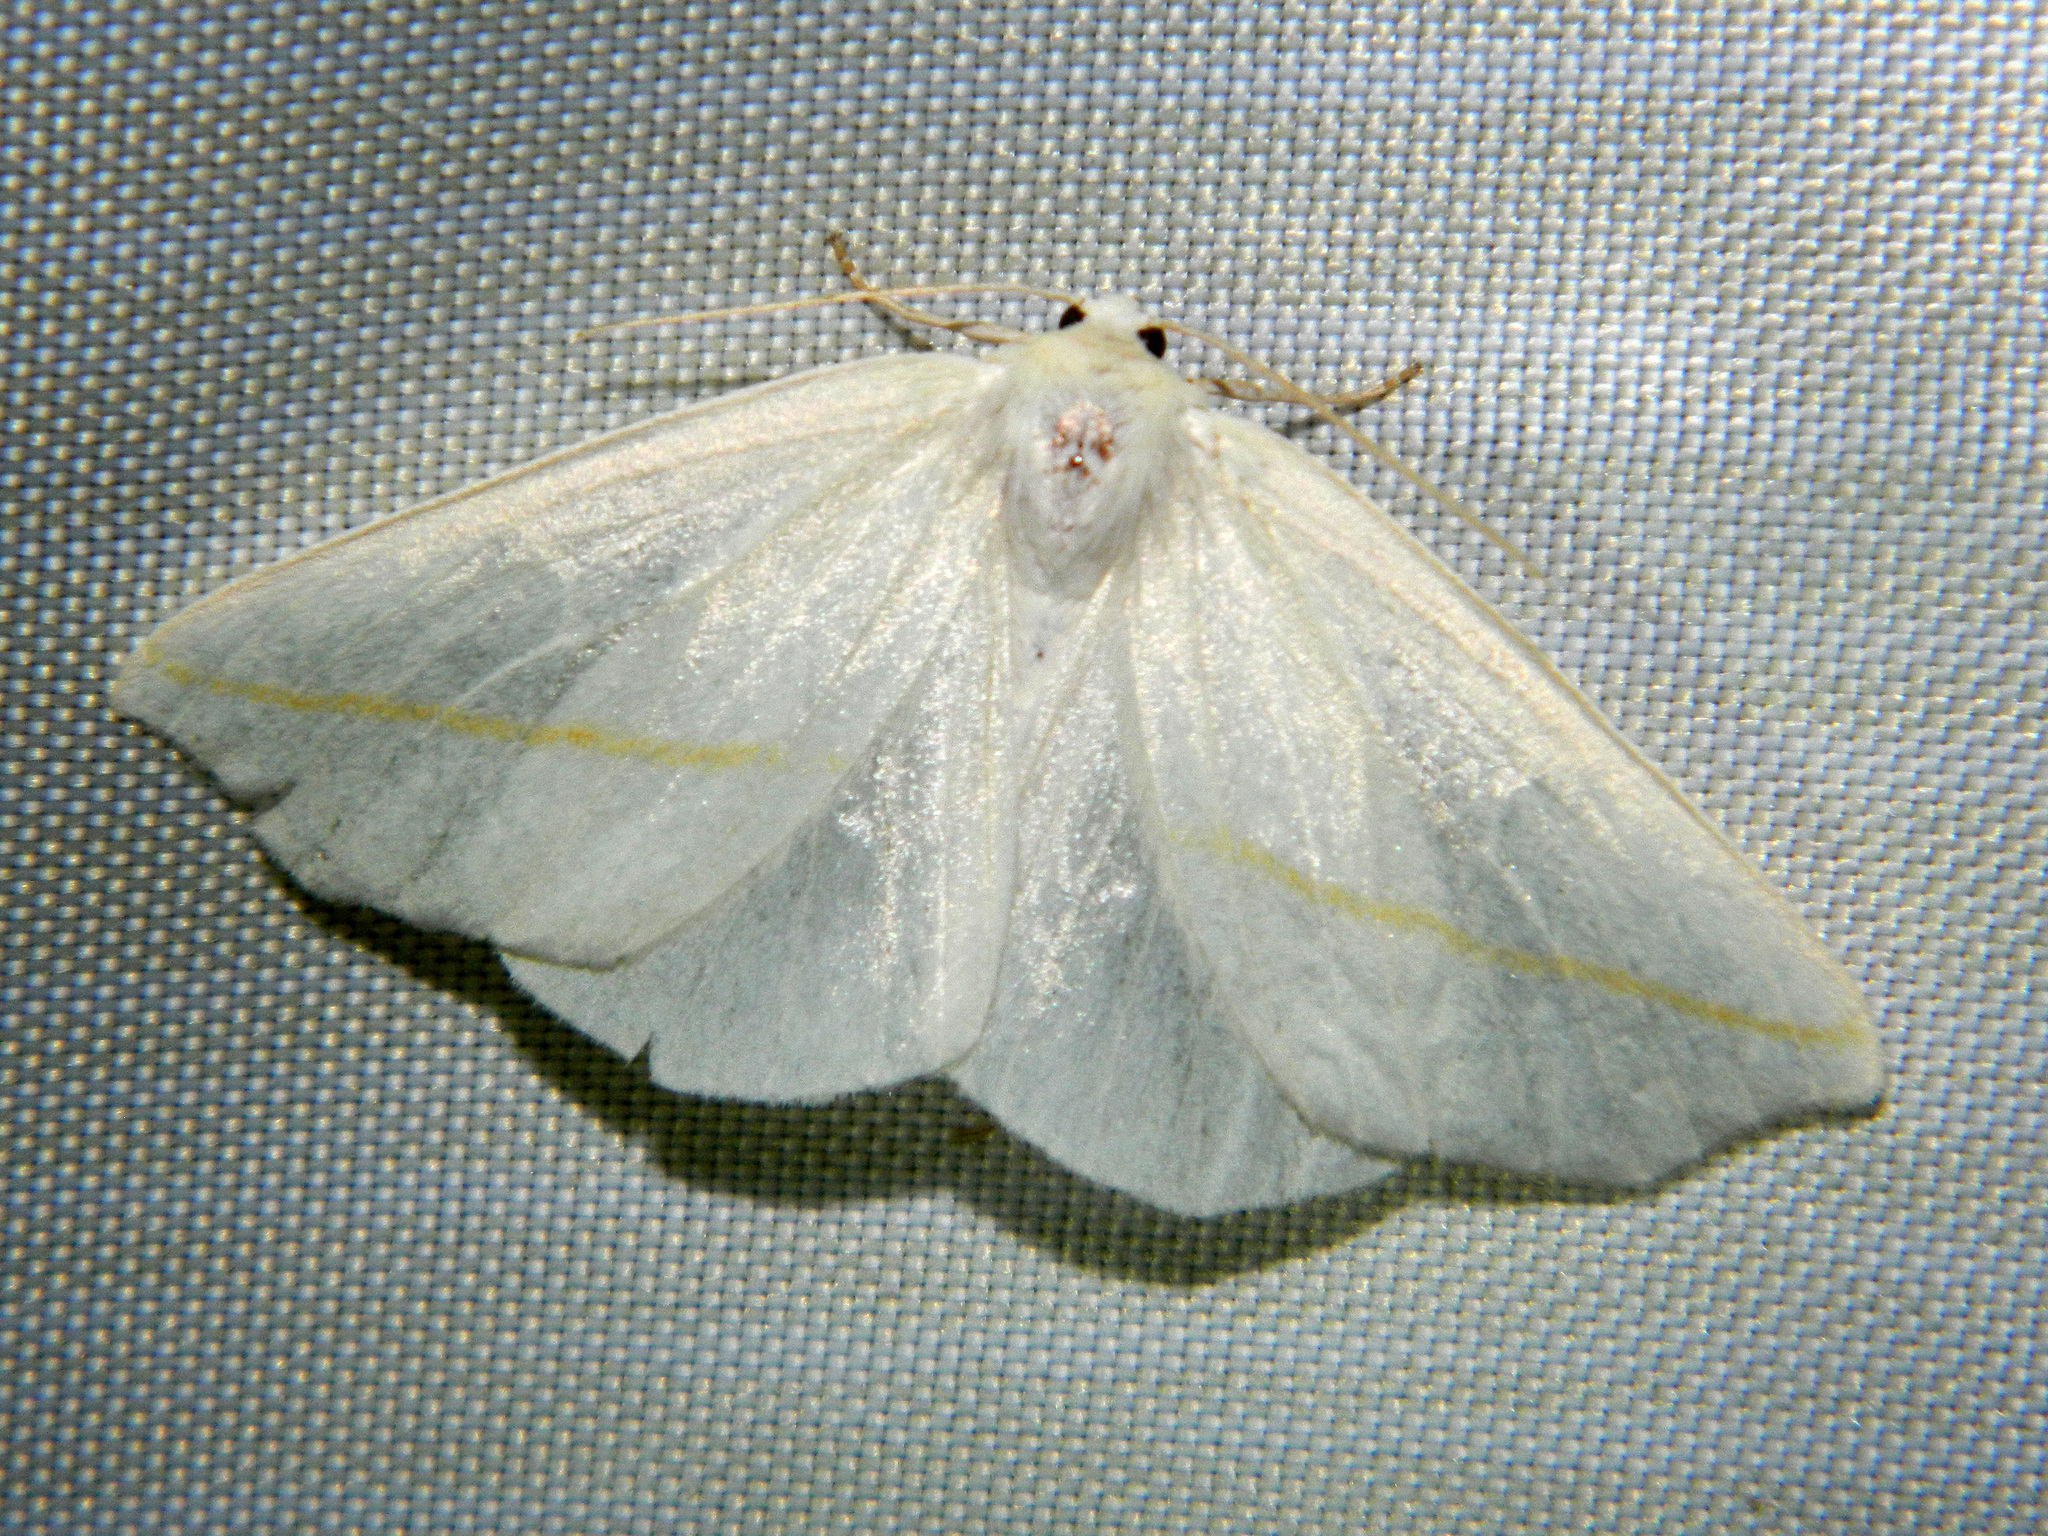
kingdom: Animalia
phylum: Arthropoda
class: Insecta
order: Lepidoptera
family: Geometridae
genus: Tetracis
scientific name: Tetracis cachexiata
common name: White slant-line
